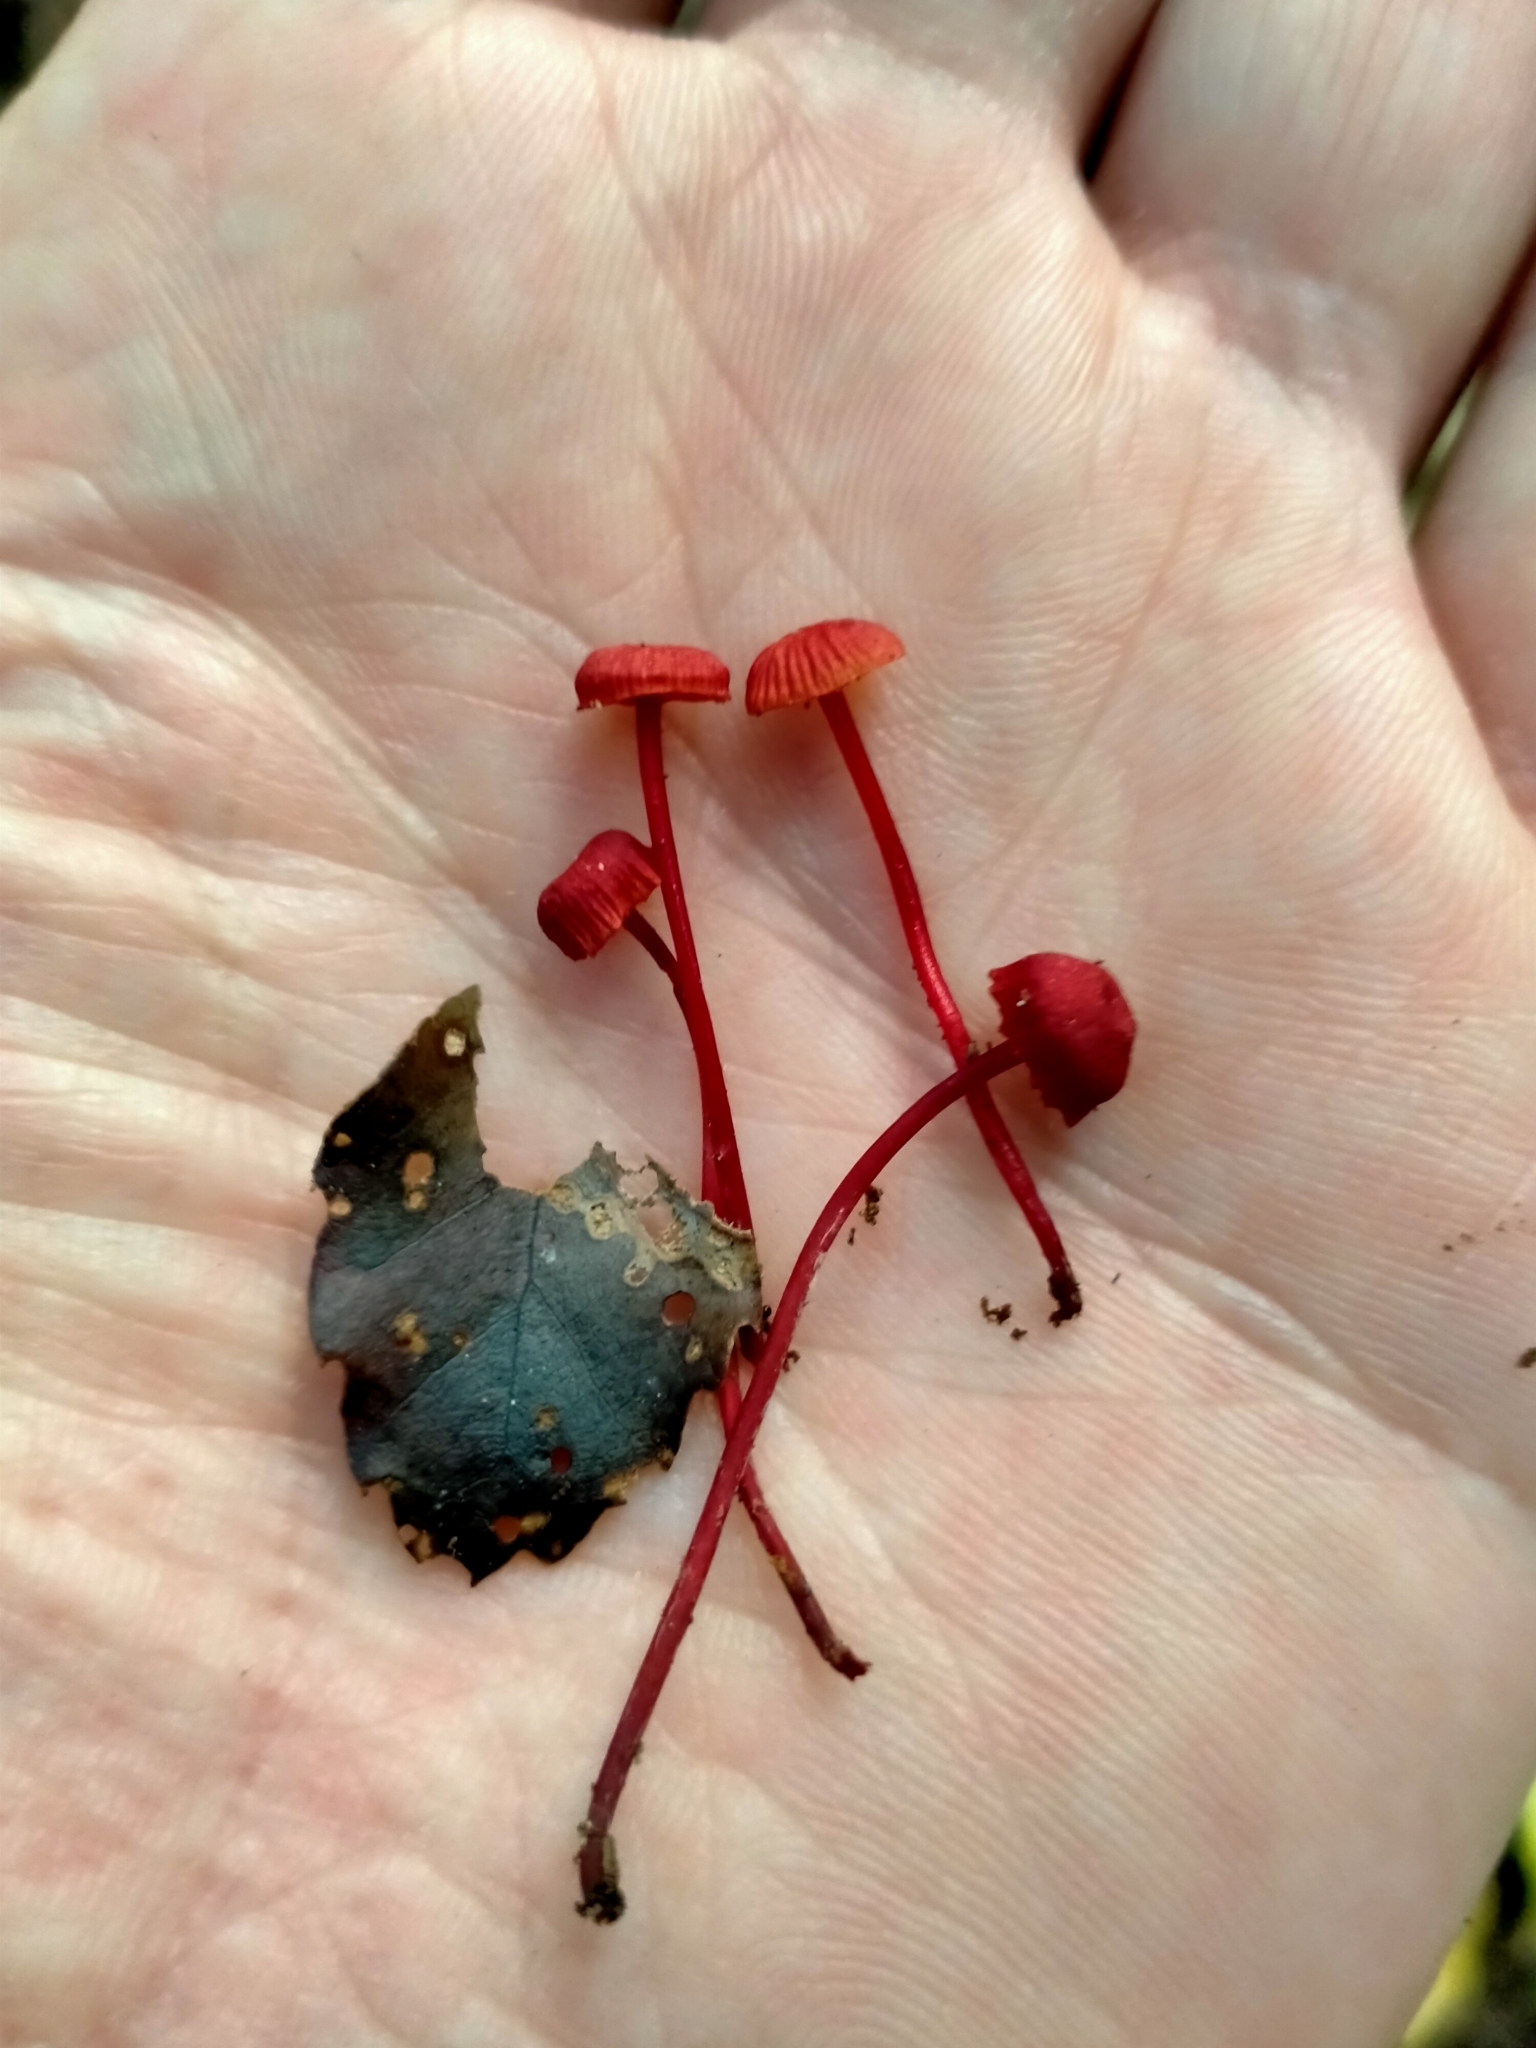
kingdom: Fungi
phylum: Basidiomycota
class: Agaricomycetes
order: Agaricales
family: Mycenaceae
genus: Cruentomycena
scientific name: Cruentomycena viscidocruenta
